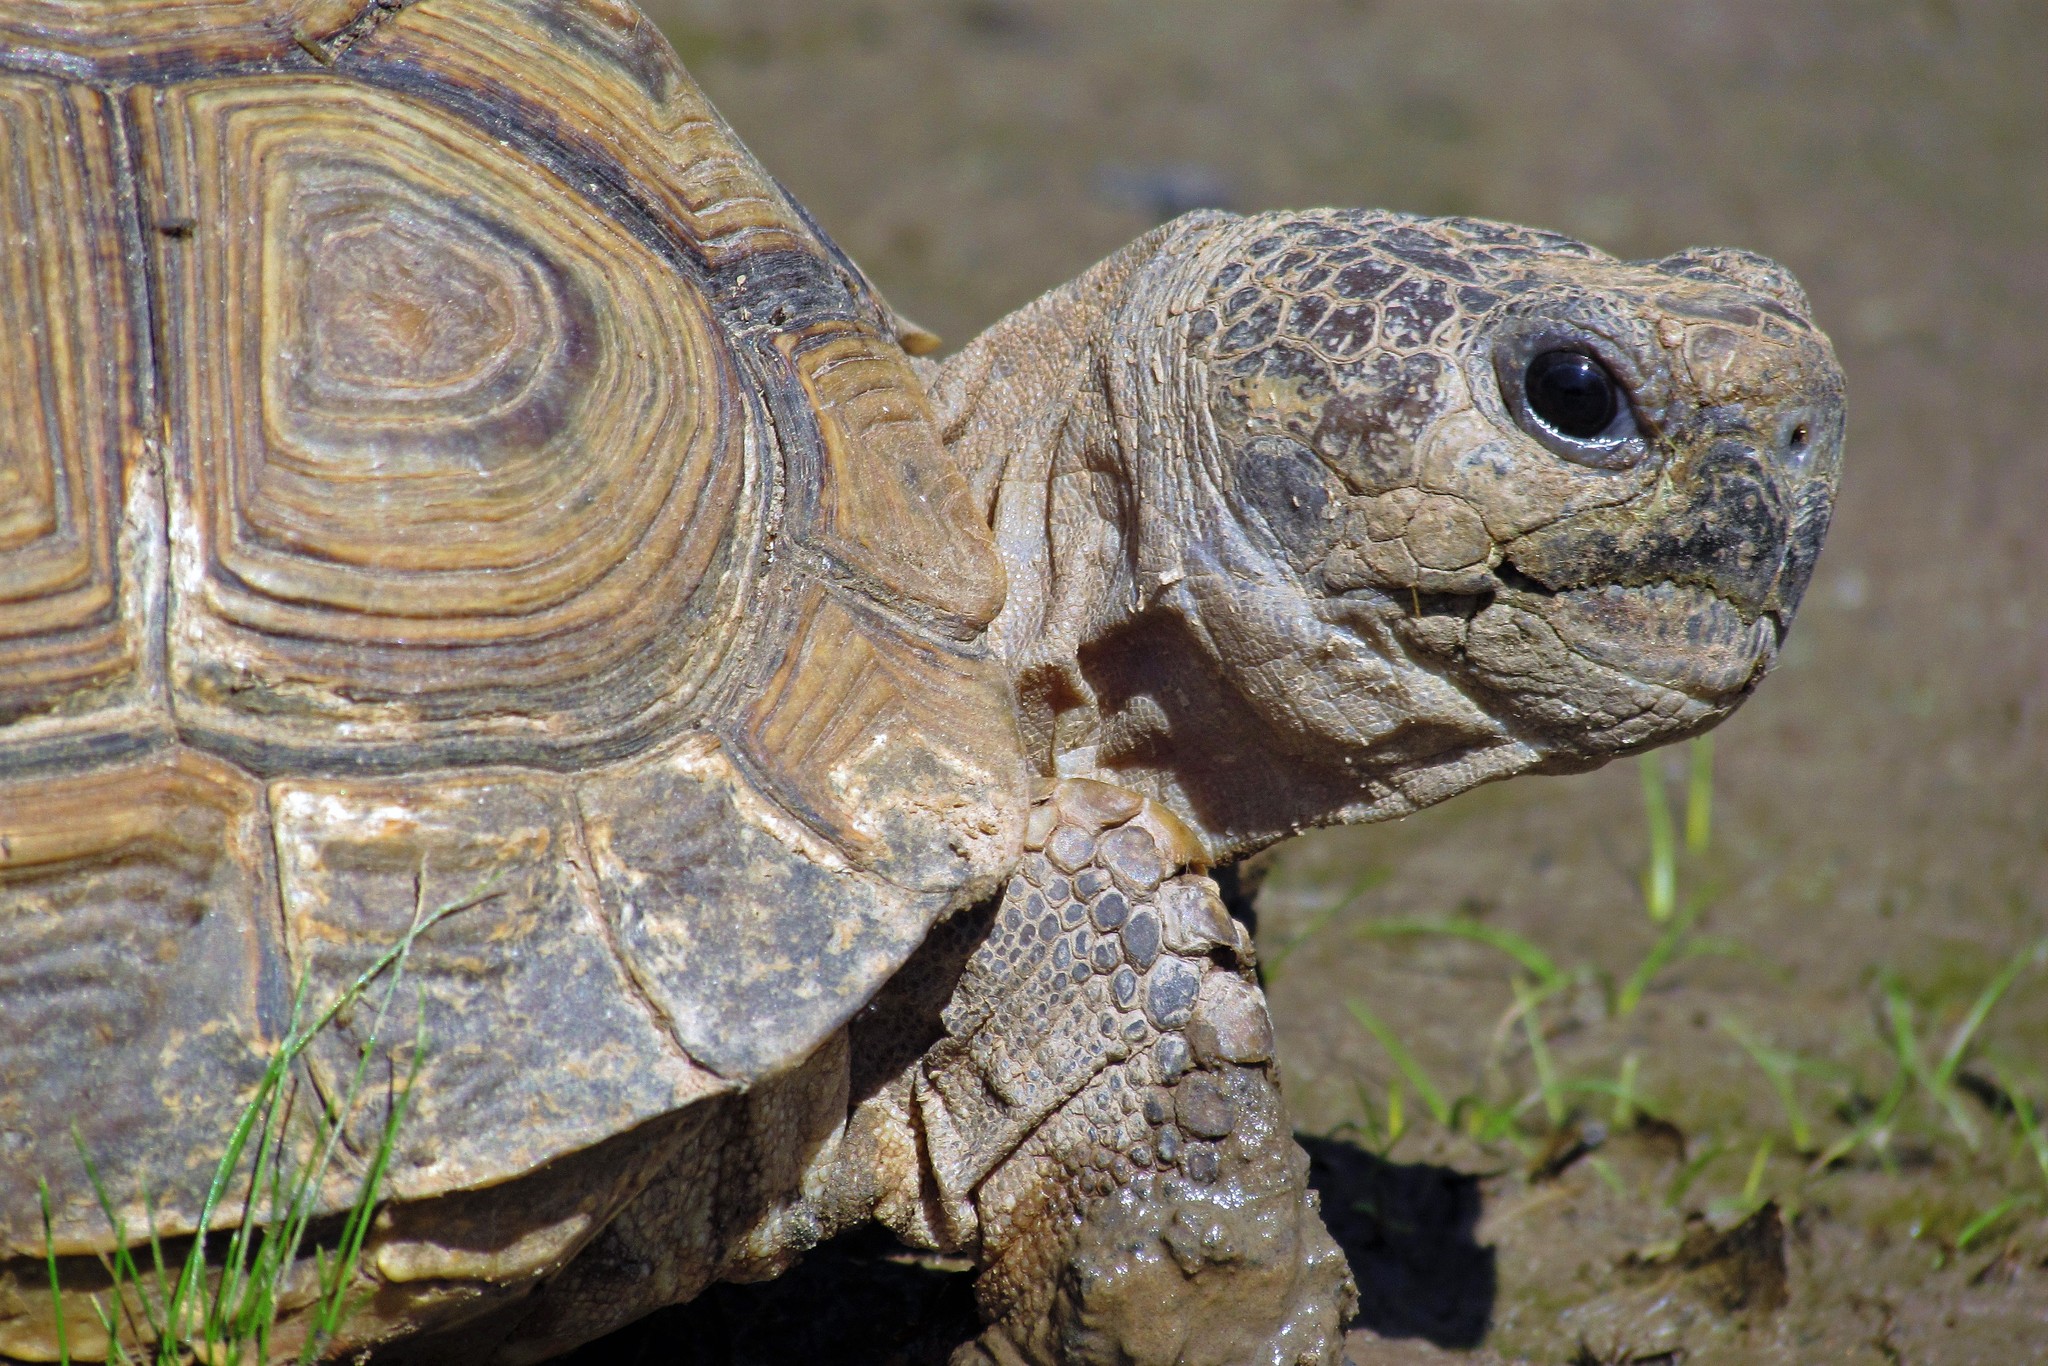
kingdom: Animalia
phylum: Chordata
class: Testudines
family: Testudinidae
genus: Chelonoidis
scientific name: Chelonoidis chilensis
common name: Chaco tortoise
